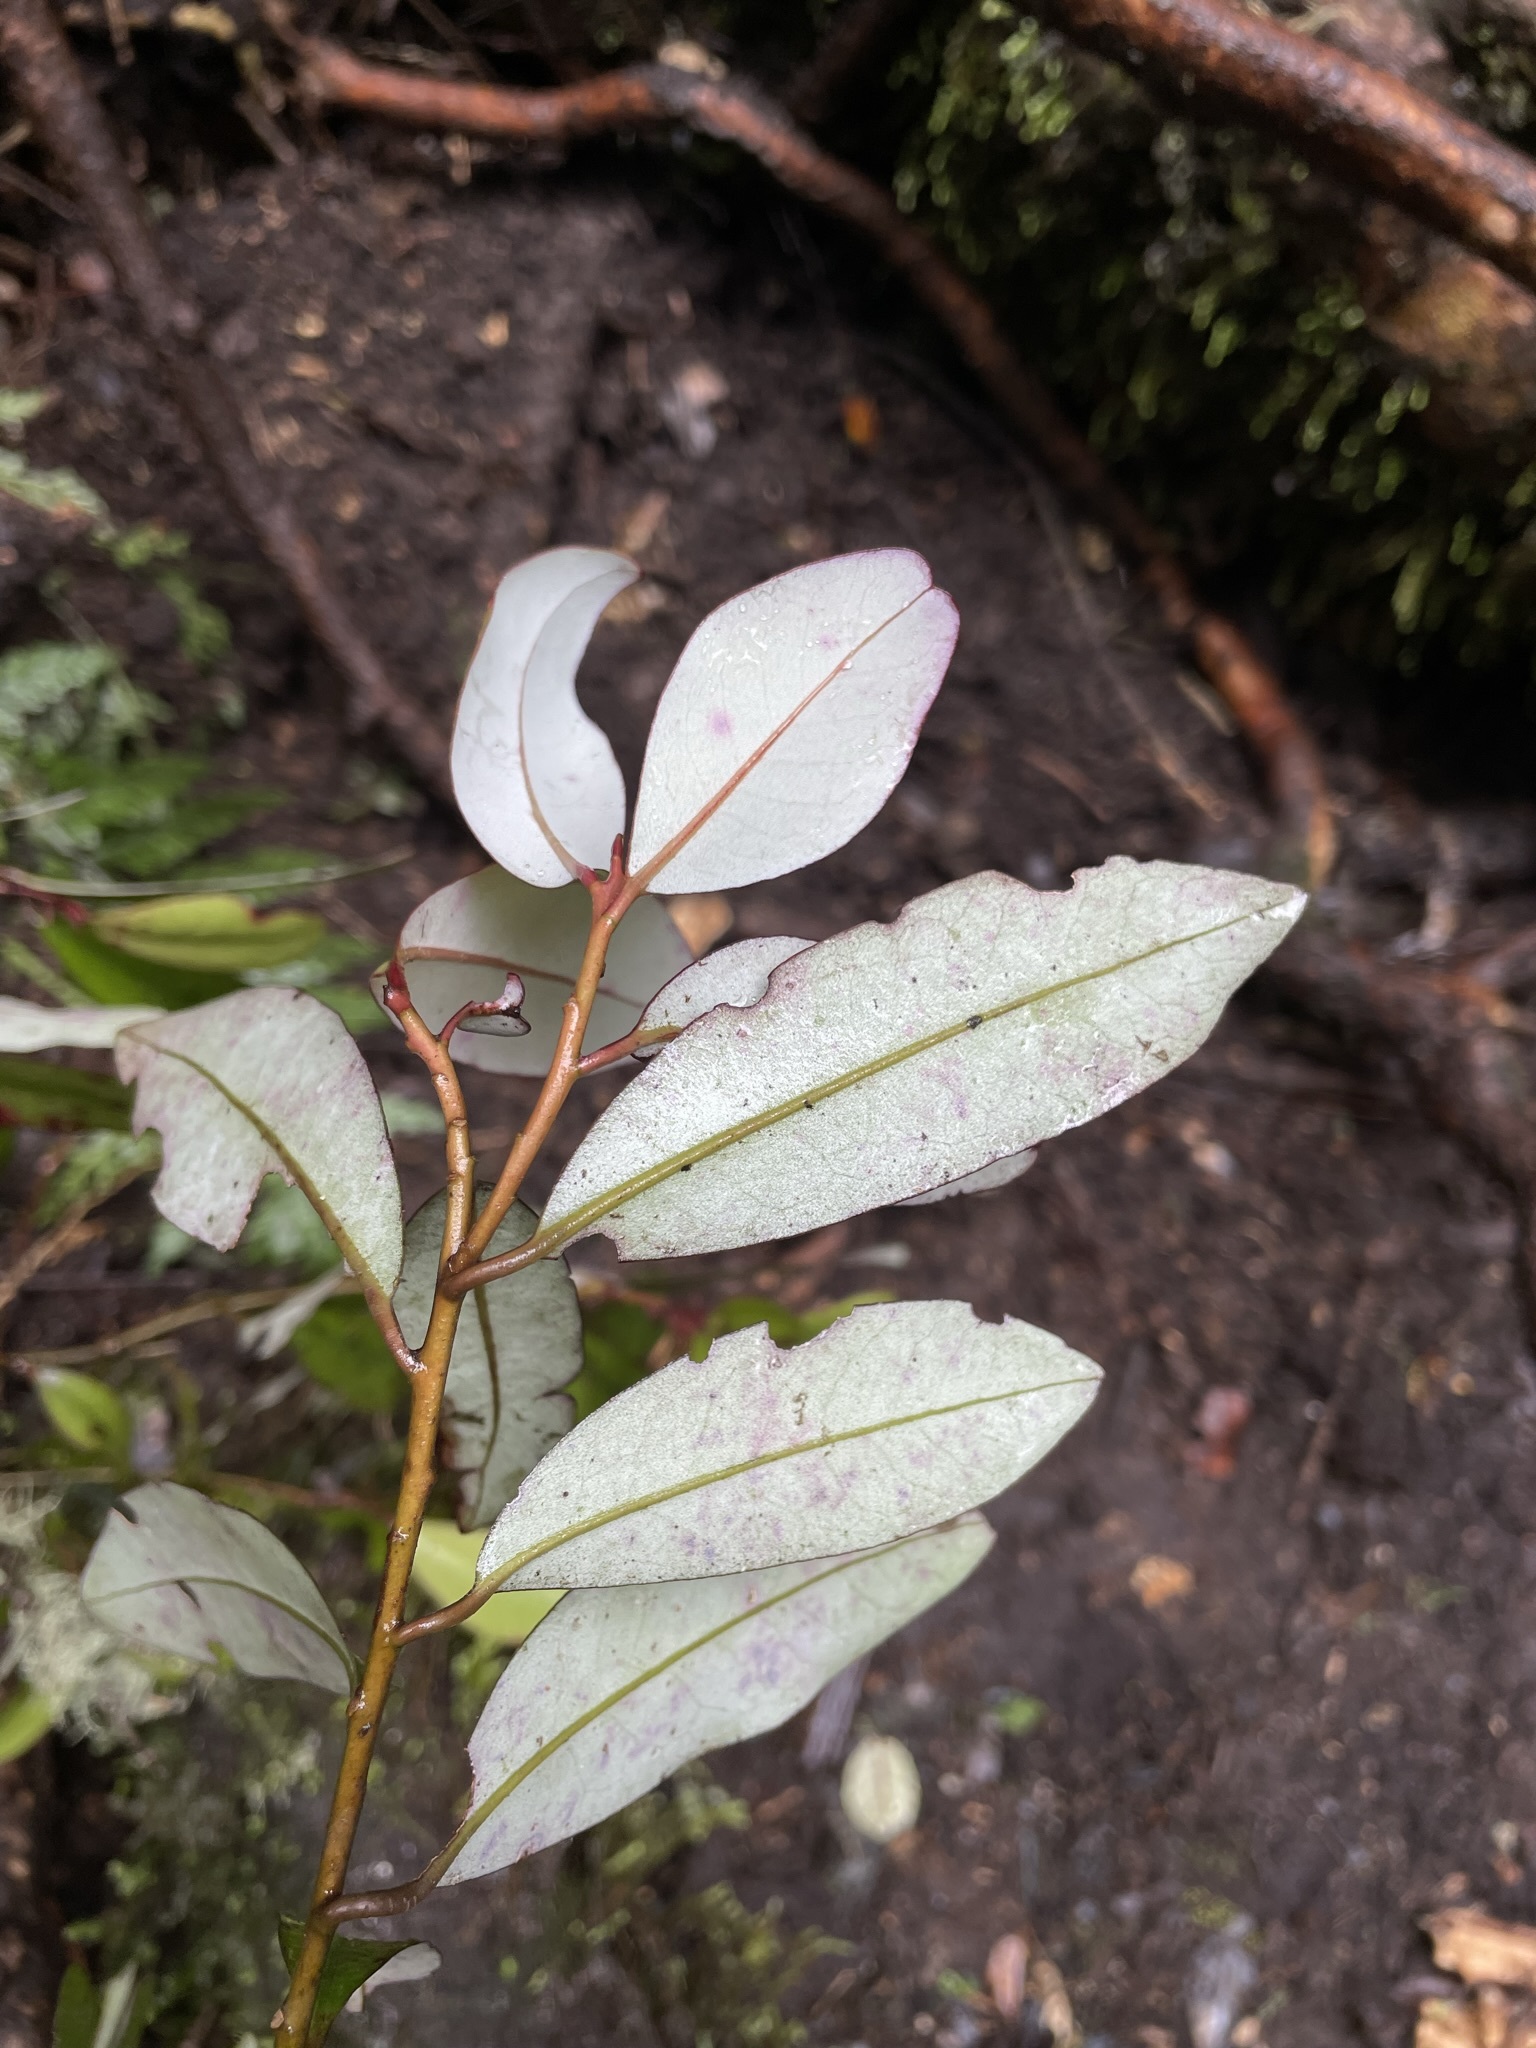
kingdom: Plantae
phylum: Tracheophyta
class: Magnoliopsida
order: Canellales
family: Winteraceae
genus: Pseudowintera
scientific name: Pseudowintera colorata
